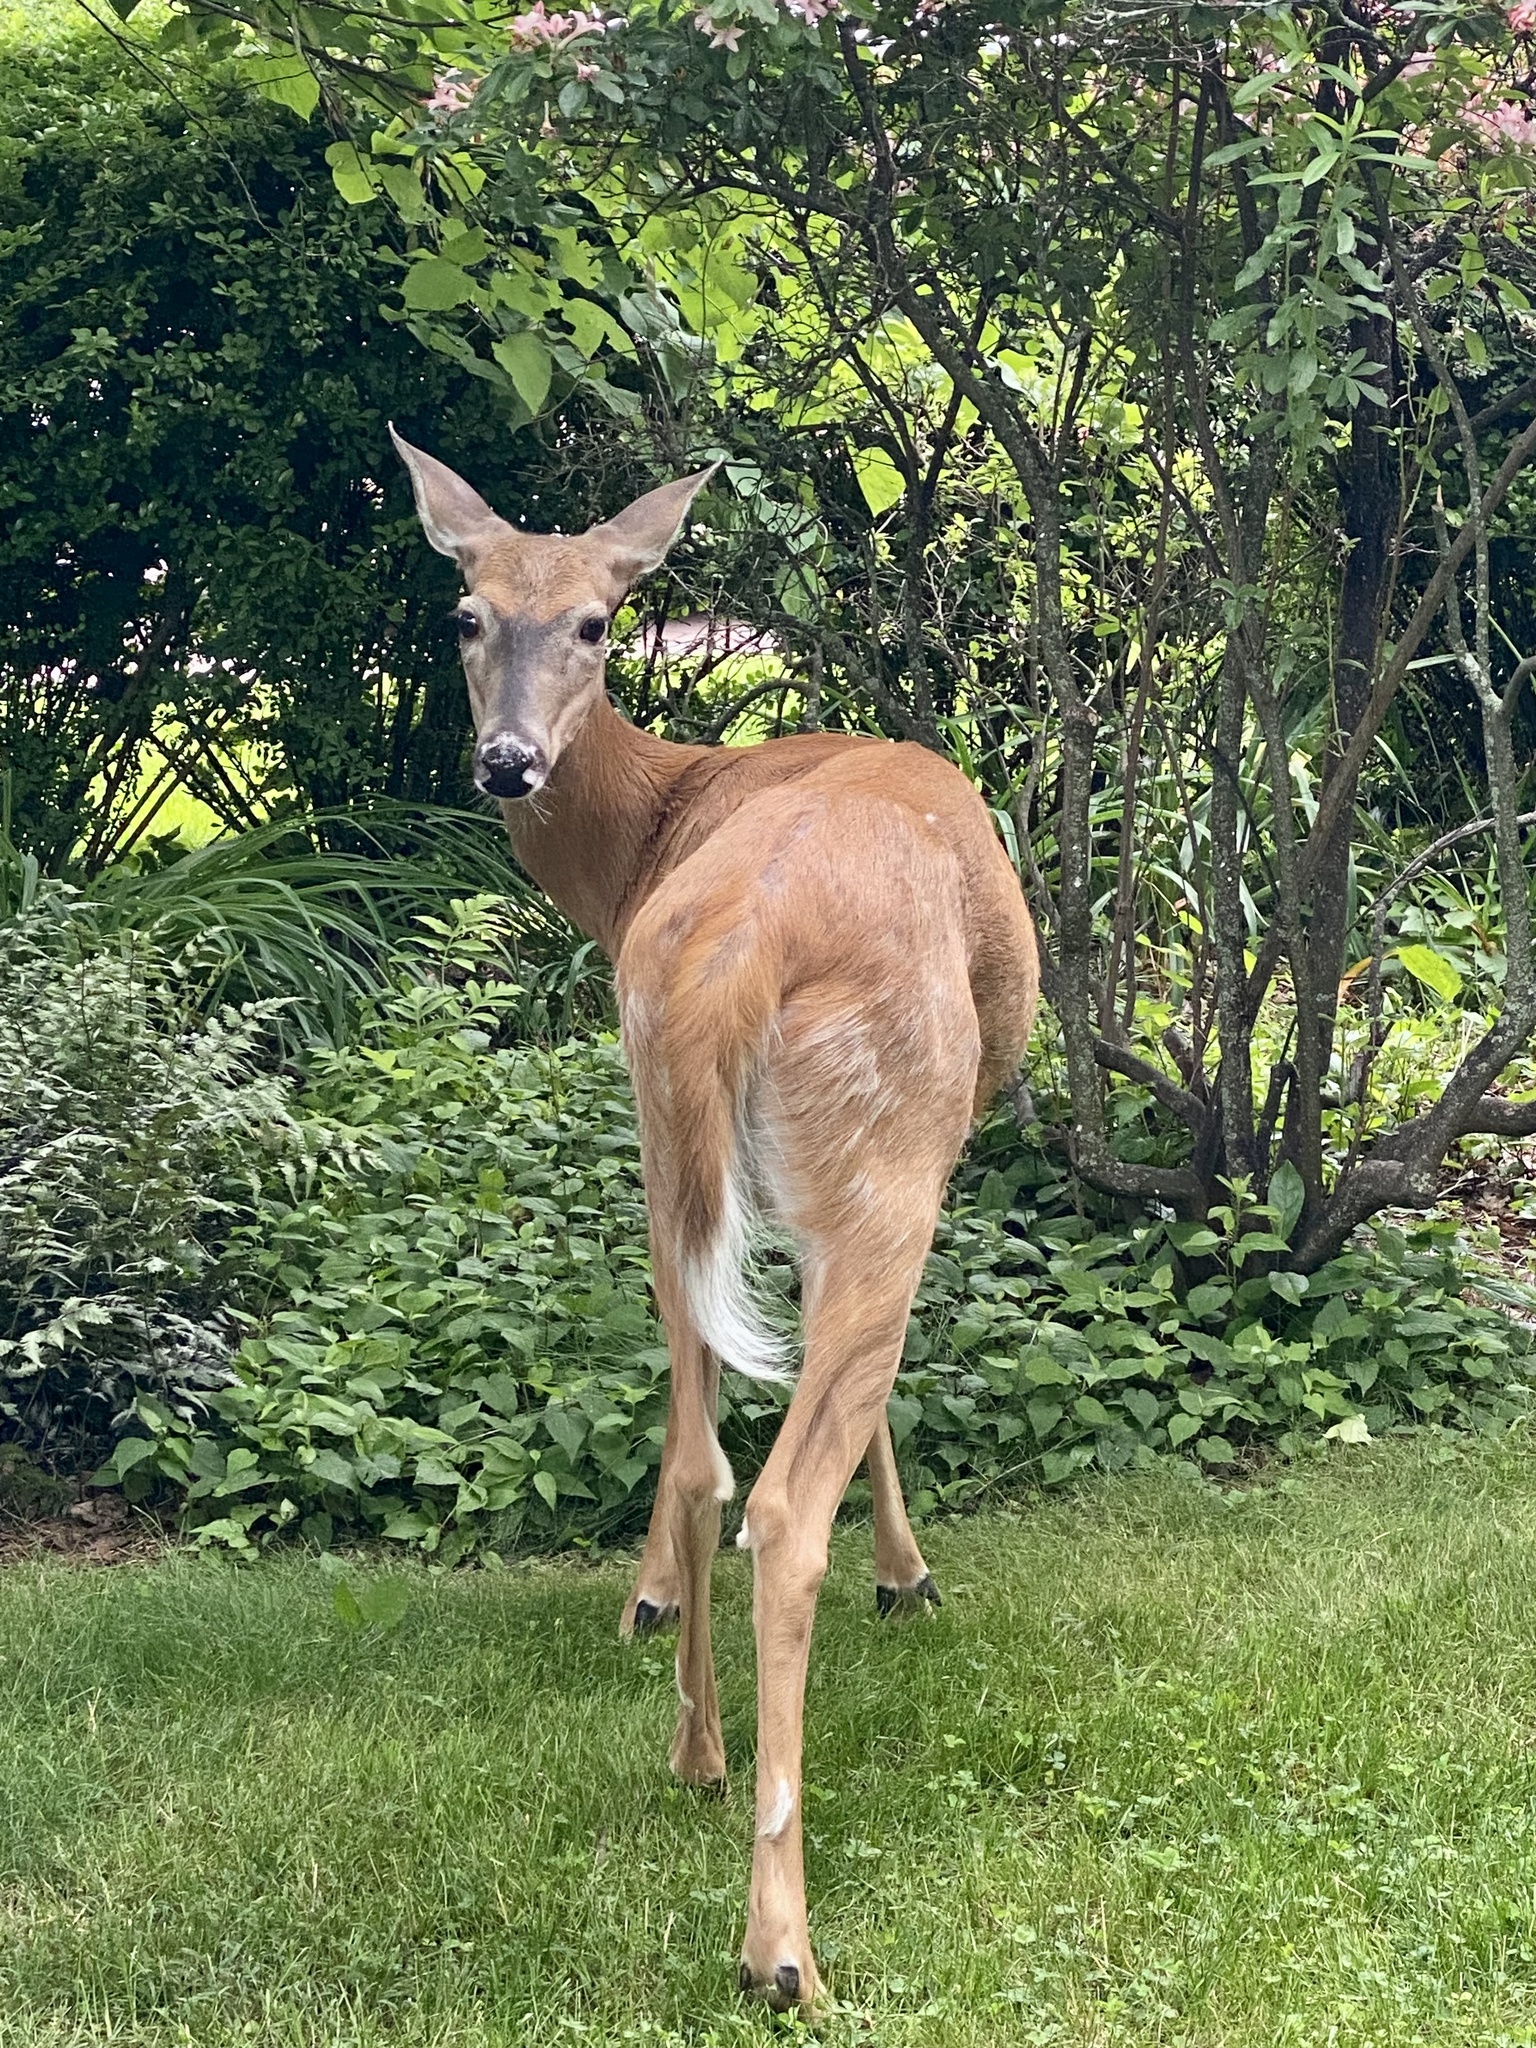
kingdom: Animalia
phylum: Chordata
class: Mammalia
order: Artiodactyla
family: Cervidae
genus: Odocoileus
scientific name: Odocoileus virginianus
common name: White-tailed deer
